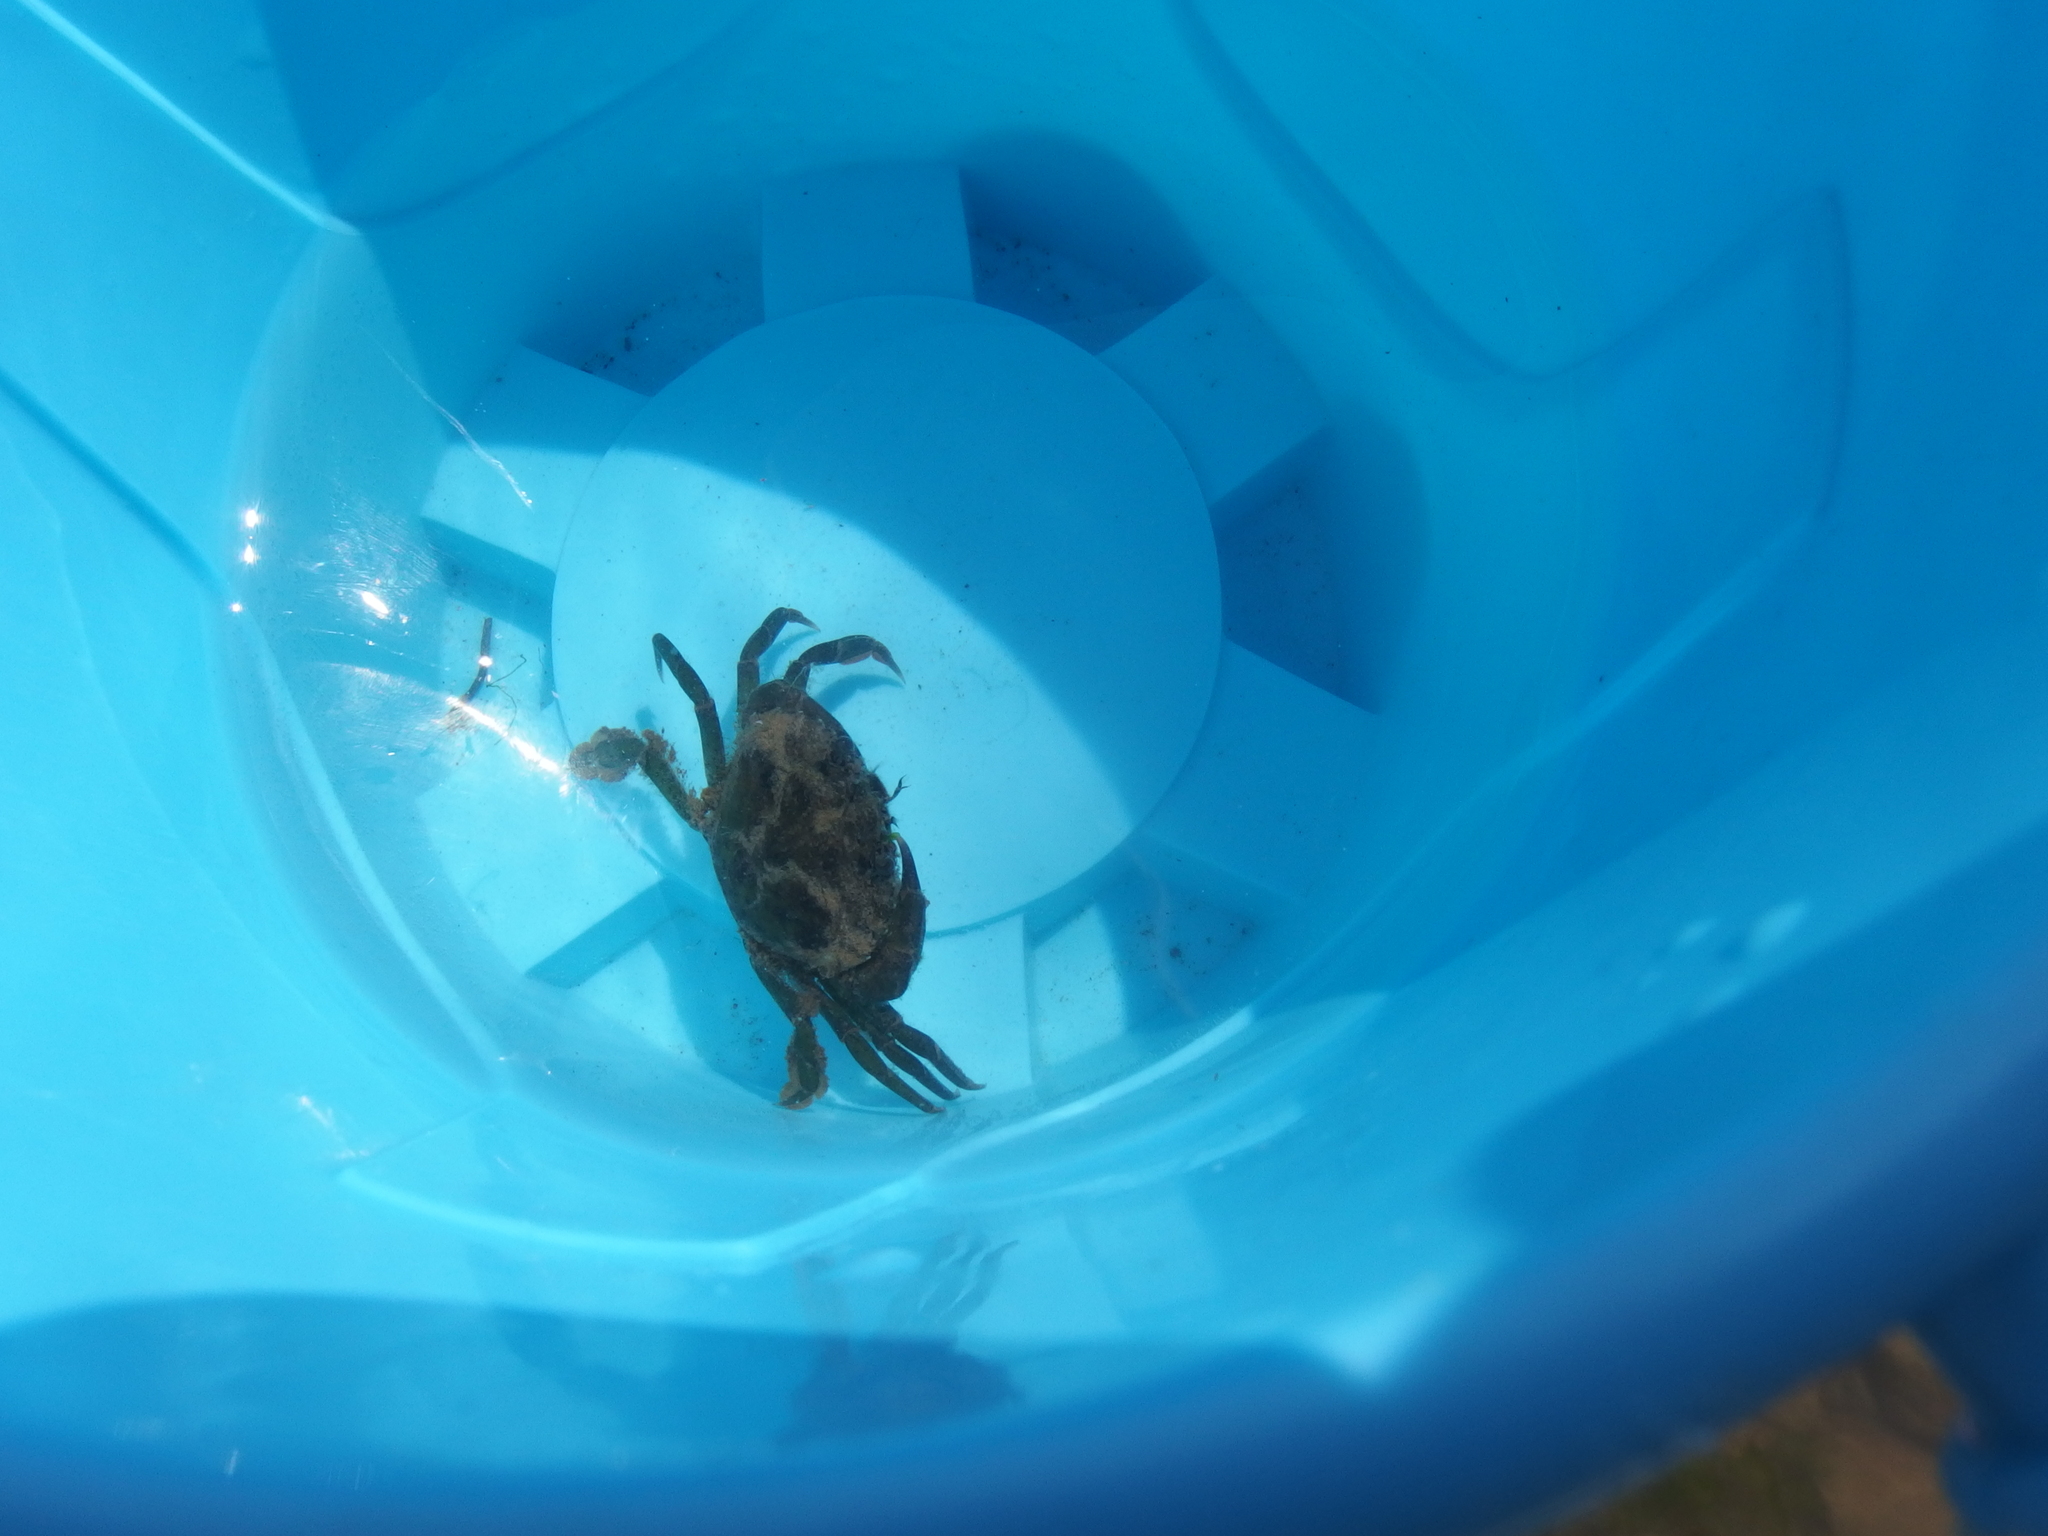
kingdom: Animalia
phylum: Arthropoda
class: Malacostraca
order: Decapoda
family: Carcinidae
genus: Carcinus
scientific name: Carcinus maenas
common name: European green crab
